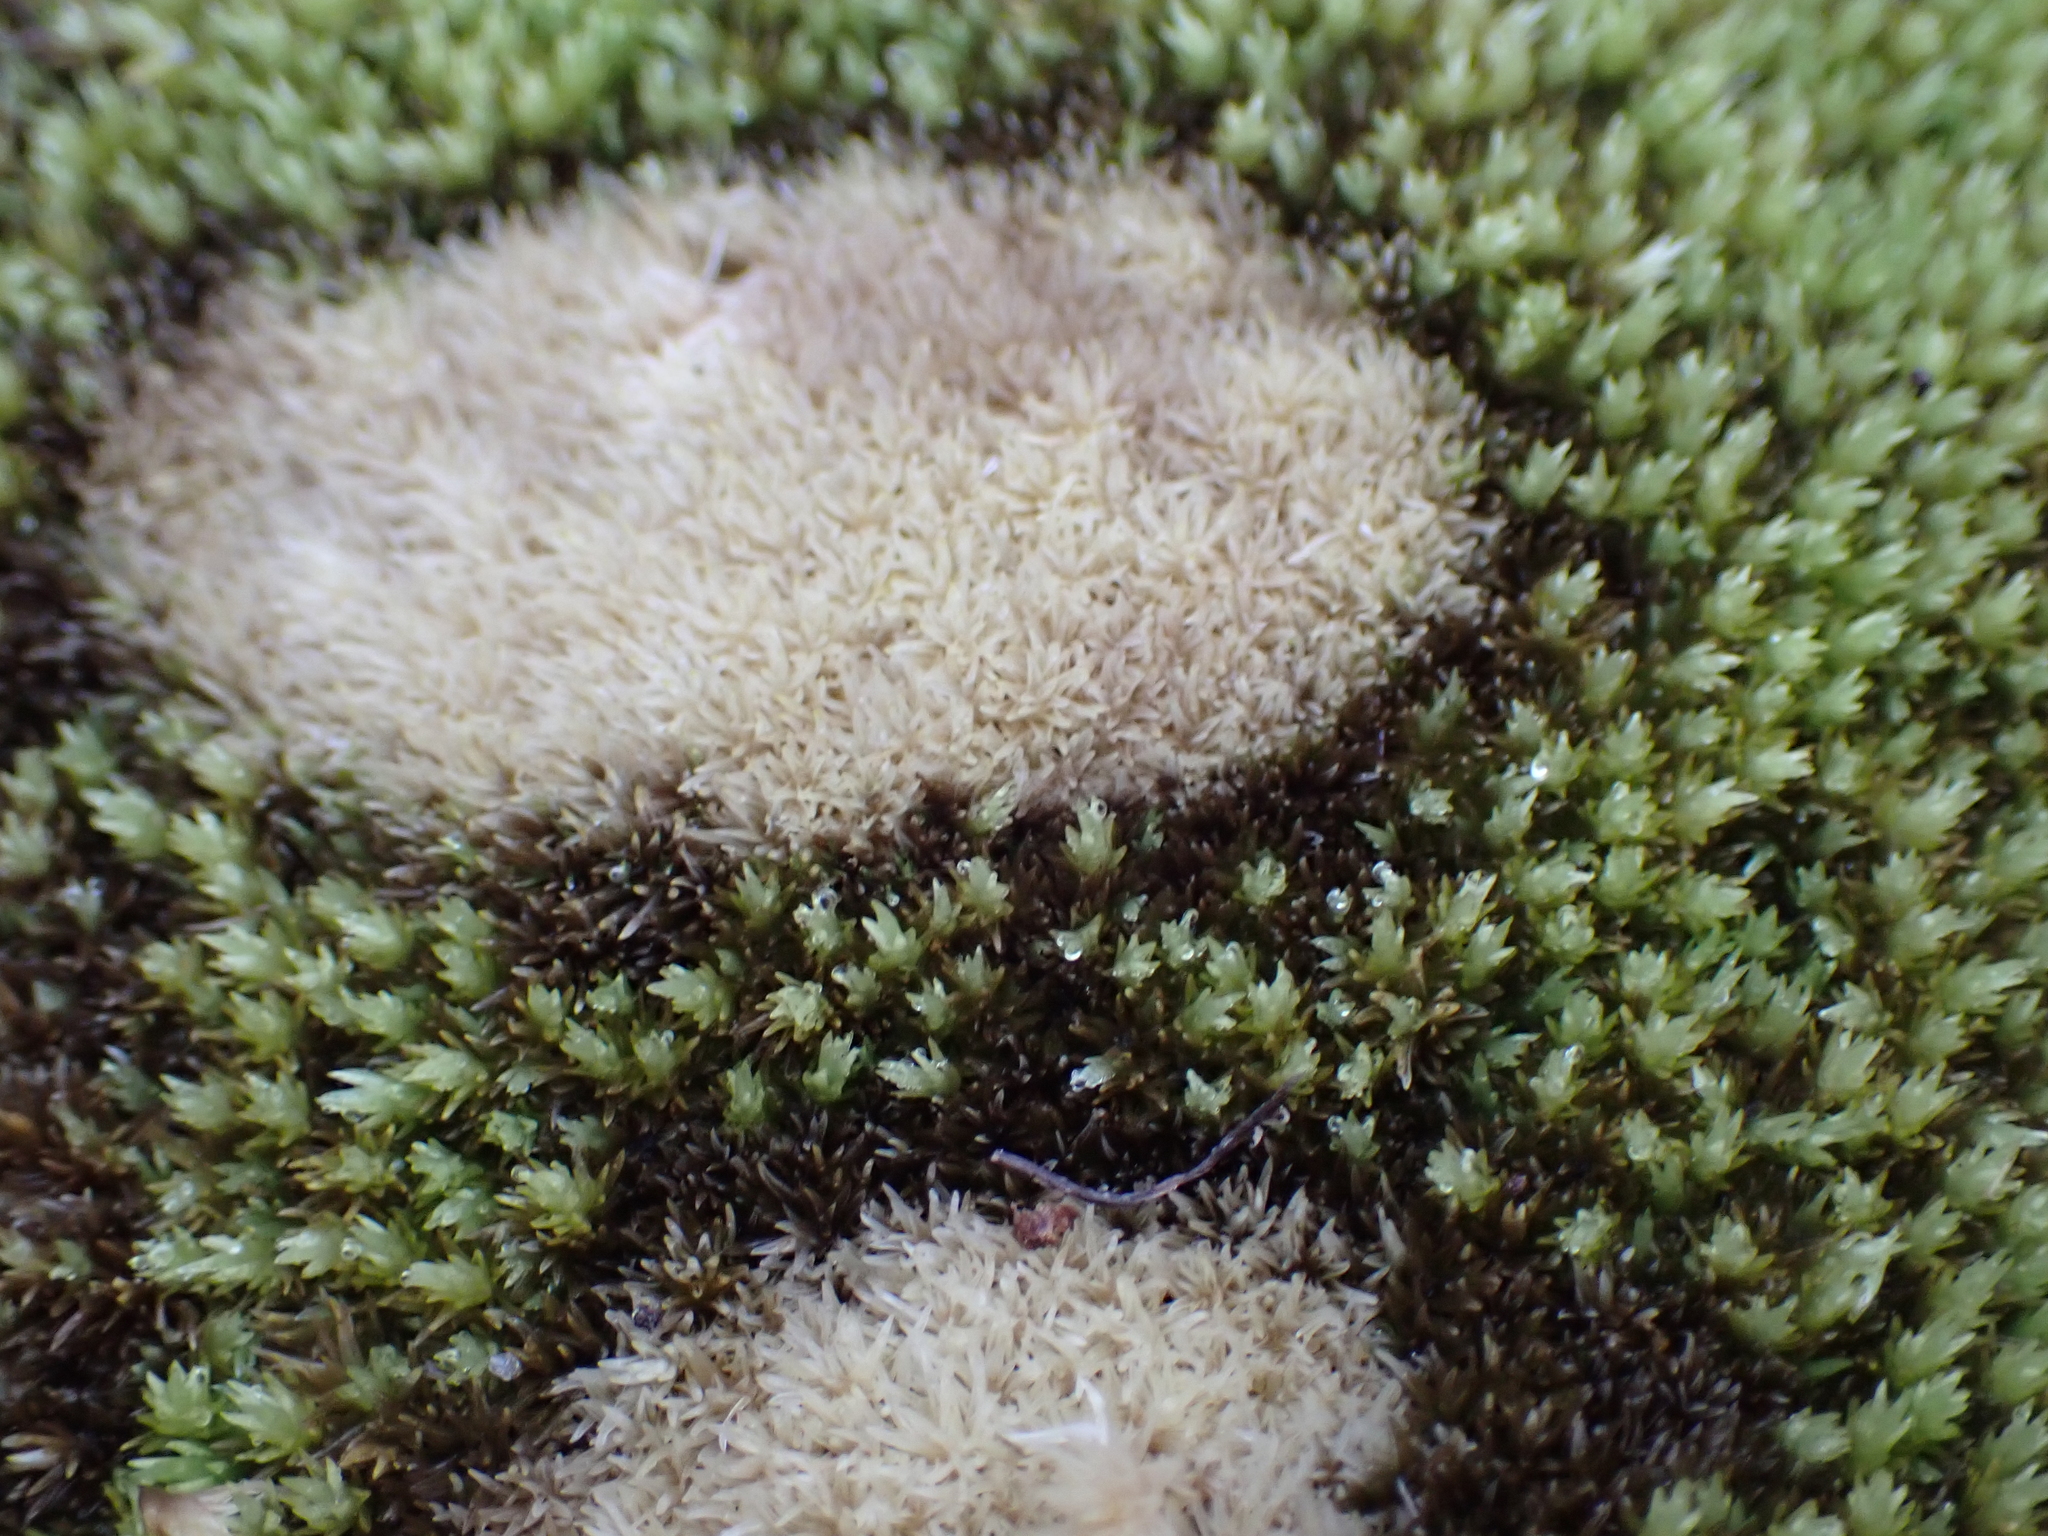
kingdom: Plantae
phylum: Bryophyta
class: Bryopsida
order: Dicranales
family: Leucobryaceae
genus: Leucobryum
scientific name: Leucobryum albidum
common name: White moss
